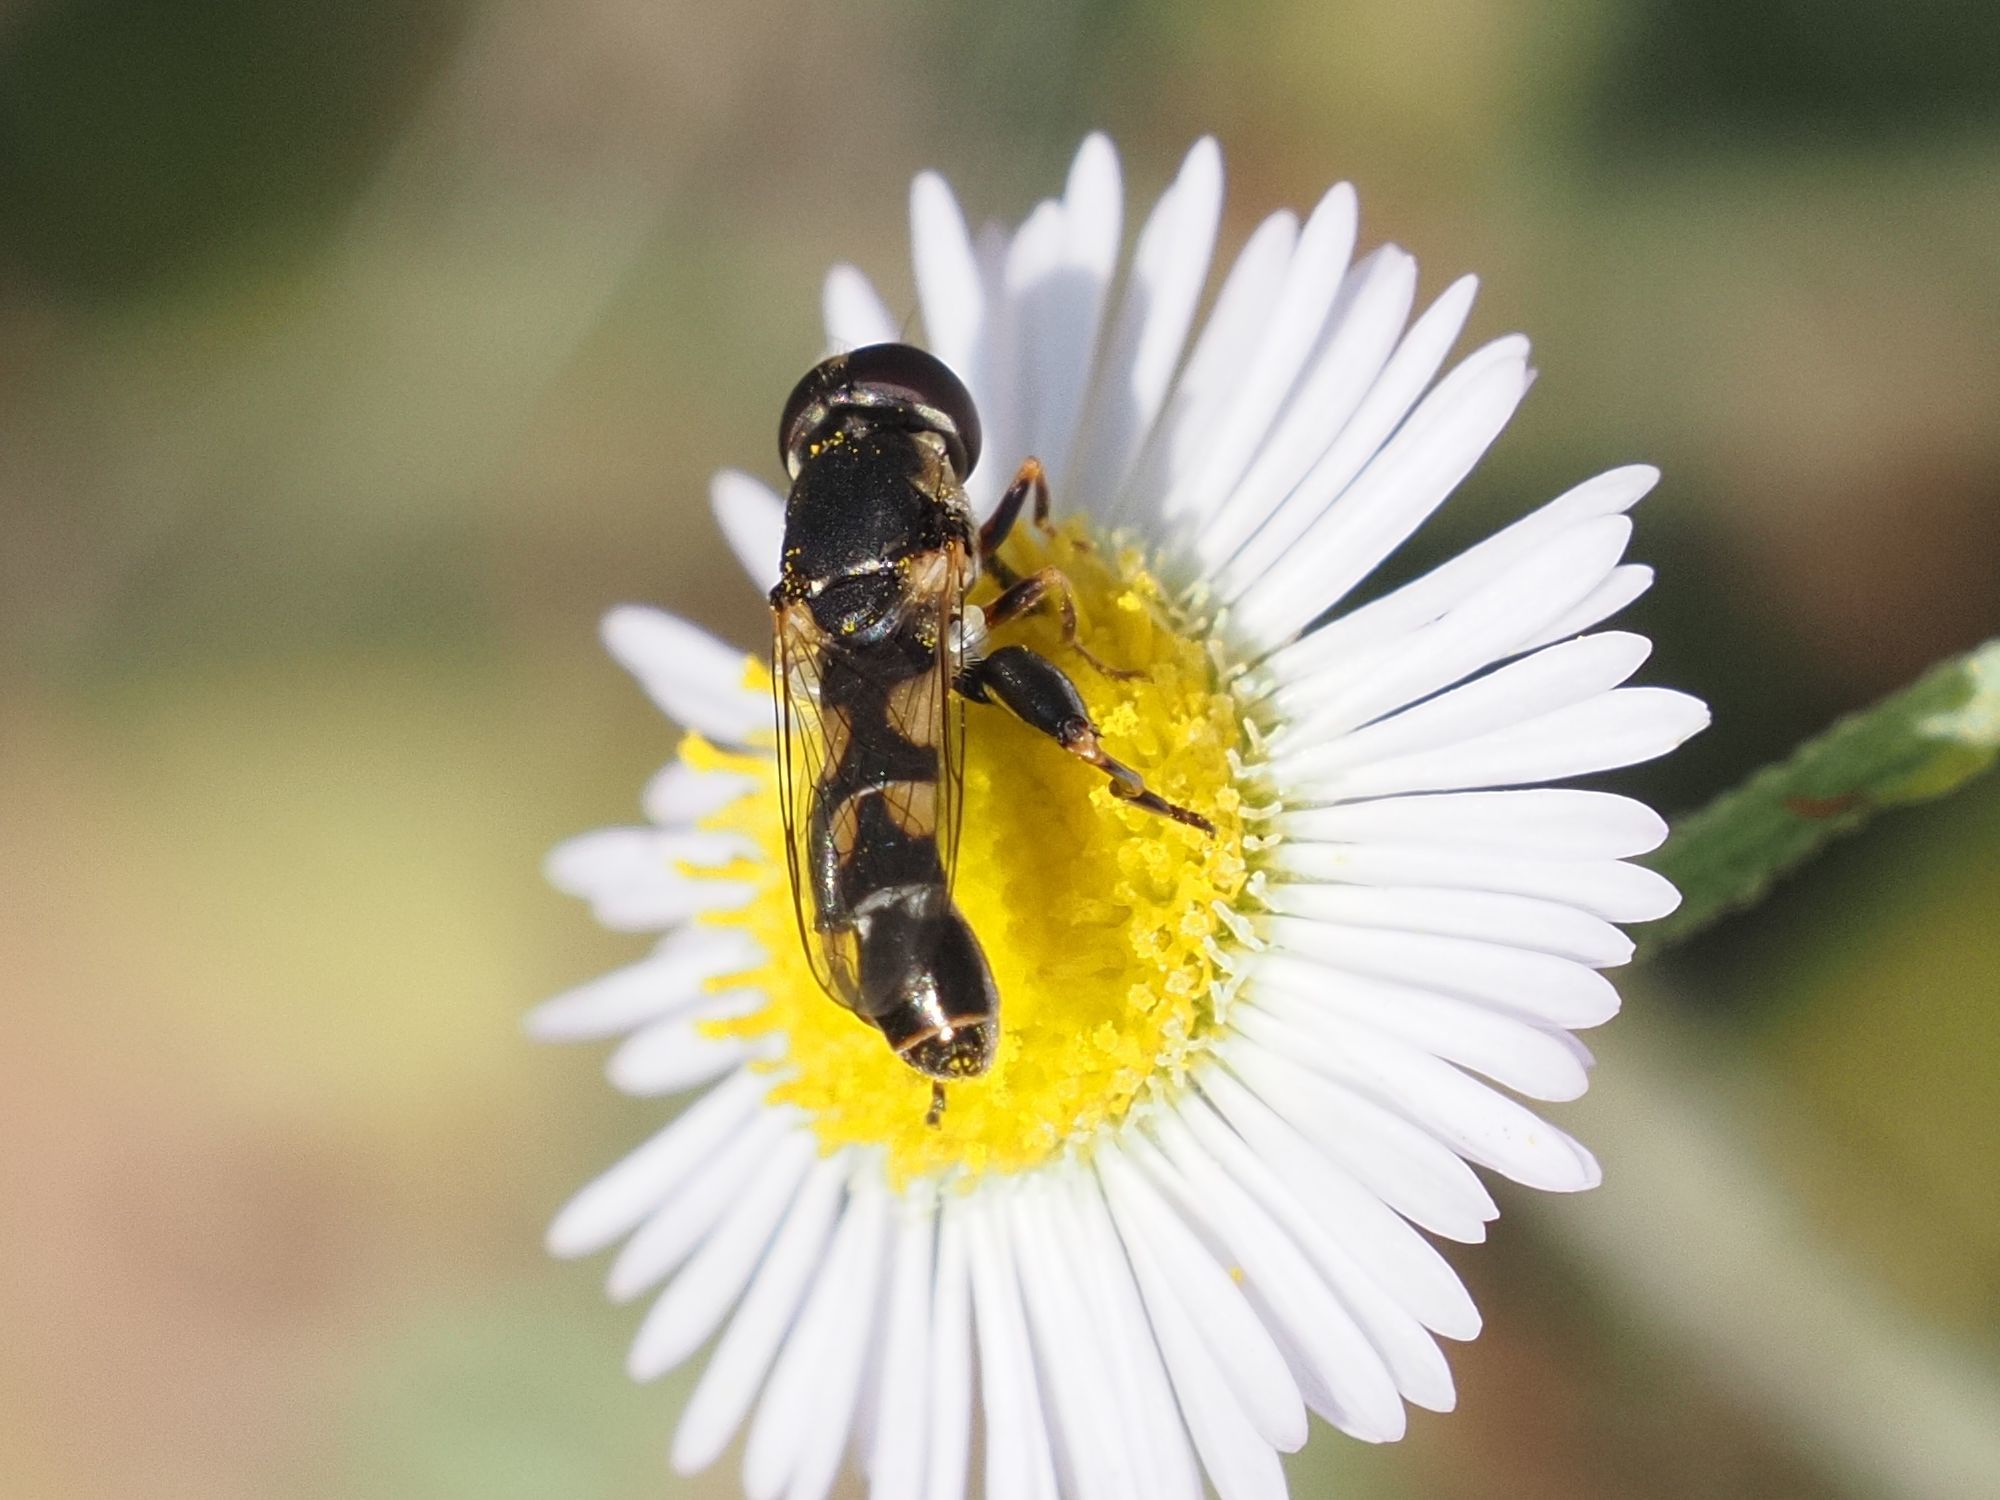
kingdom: Animalia
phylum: Arthropoda
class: Insecta
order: Diptera
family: Syrphidae
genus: Syritta
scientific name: Syritta pipiens
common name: Hover fly
